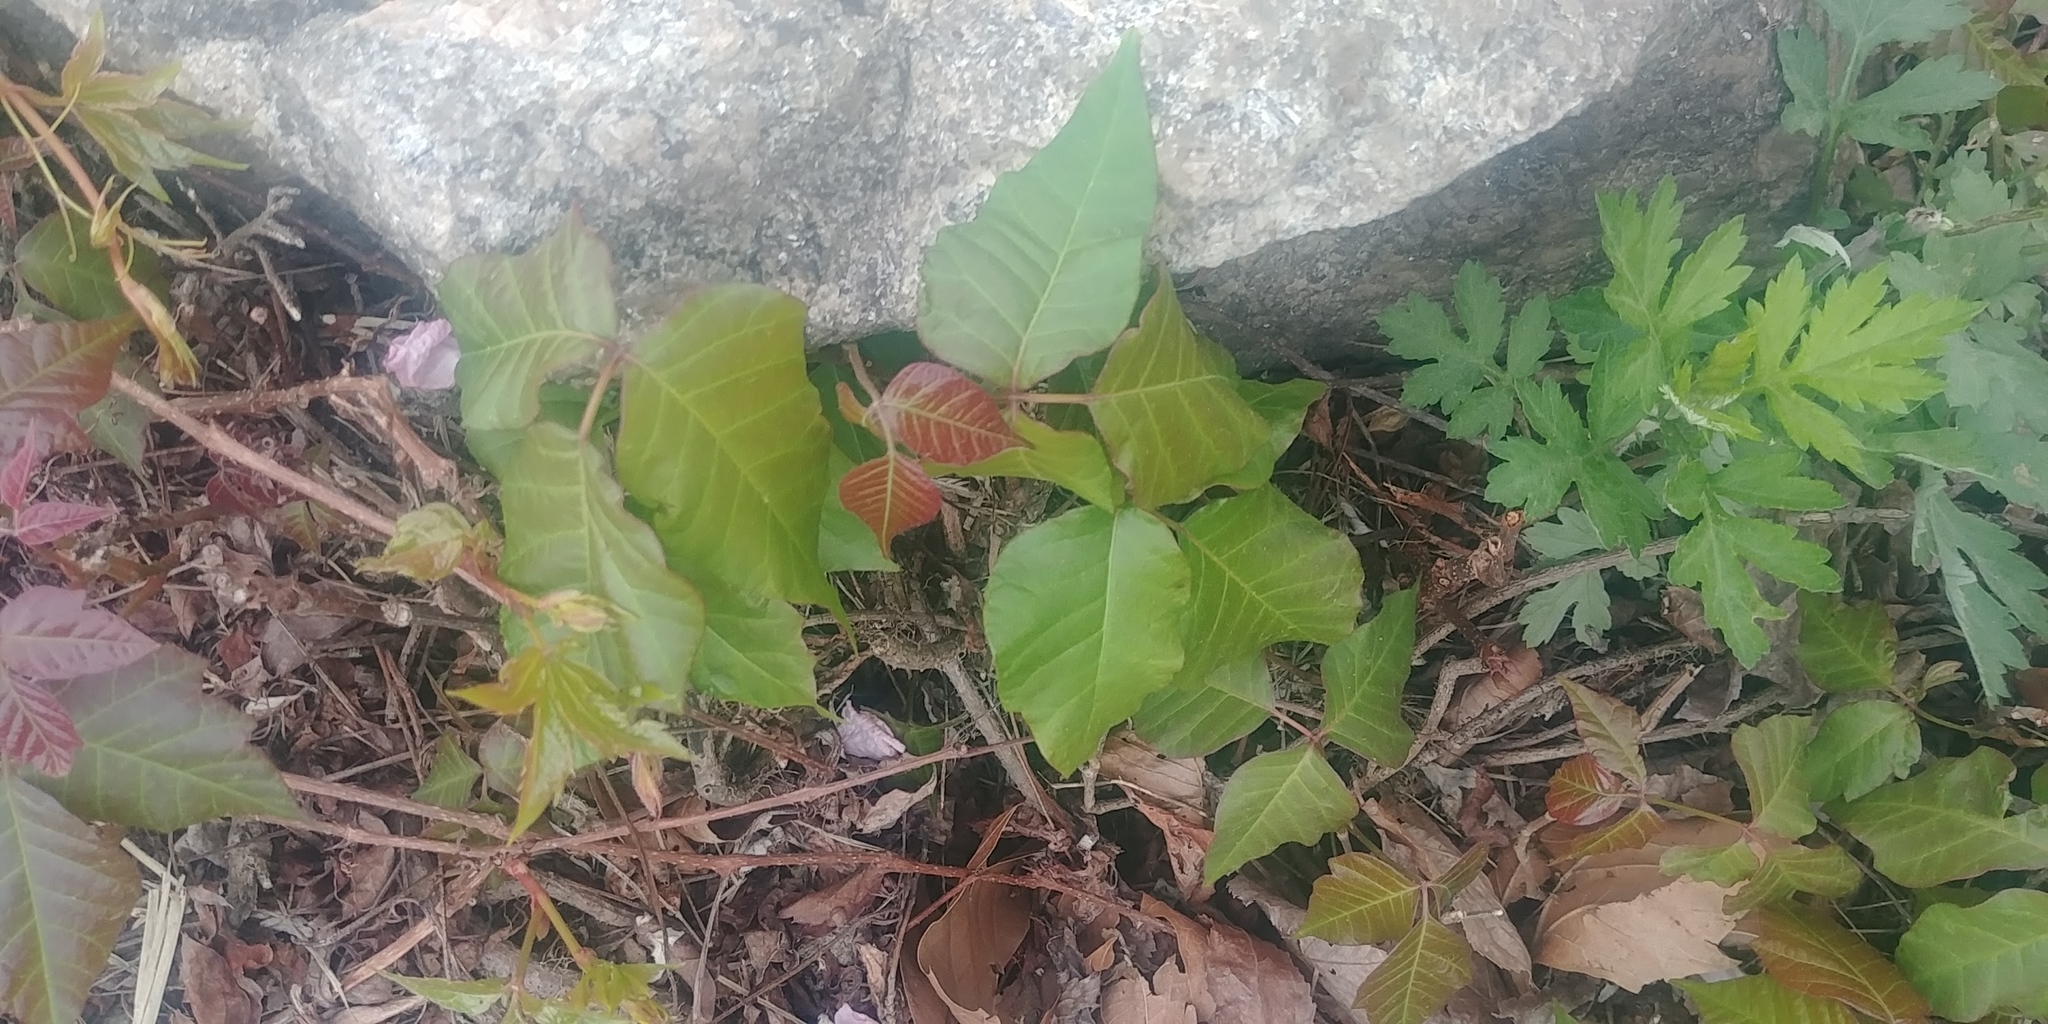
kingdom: Plantae
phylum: Tracheophyta
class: Magnoliopsida
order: Sapindales
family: Anacardiaceae
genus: Toxicodendron
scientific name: Toxicodendron radicans
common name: Poison ivy
